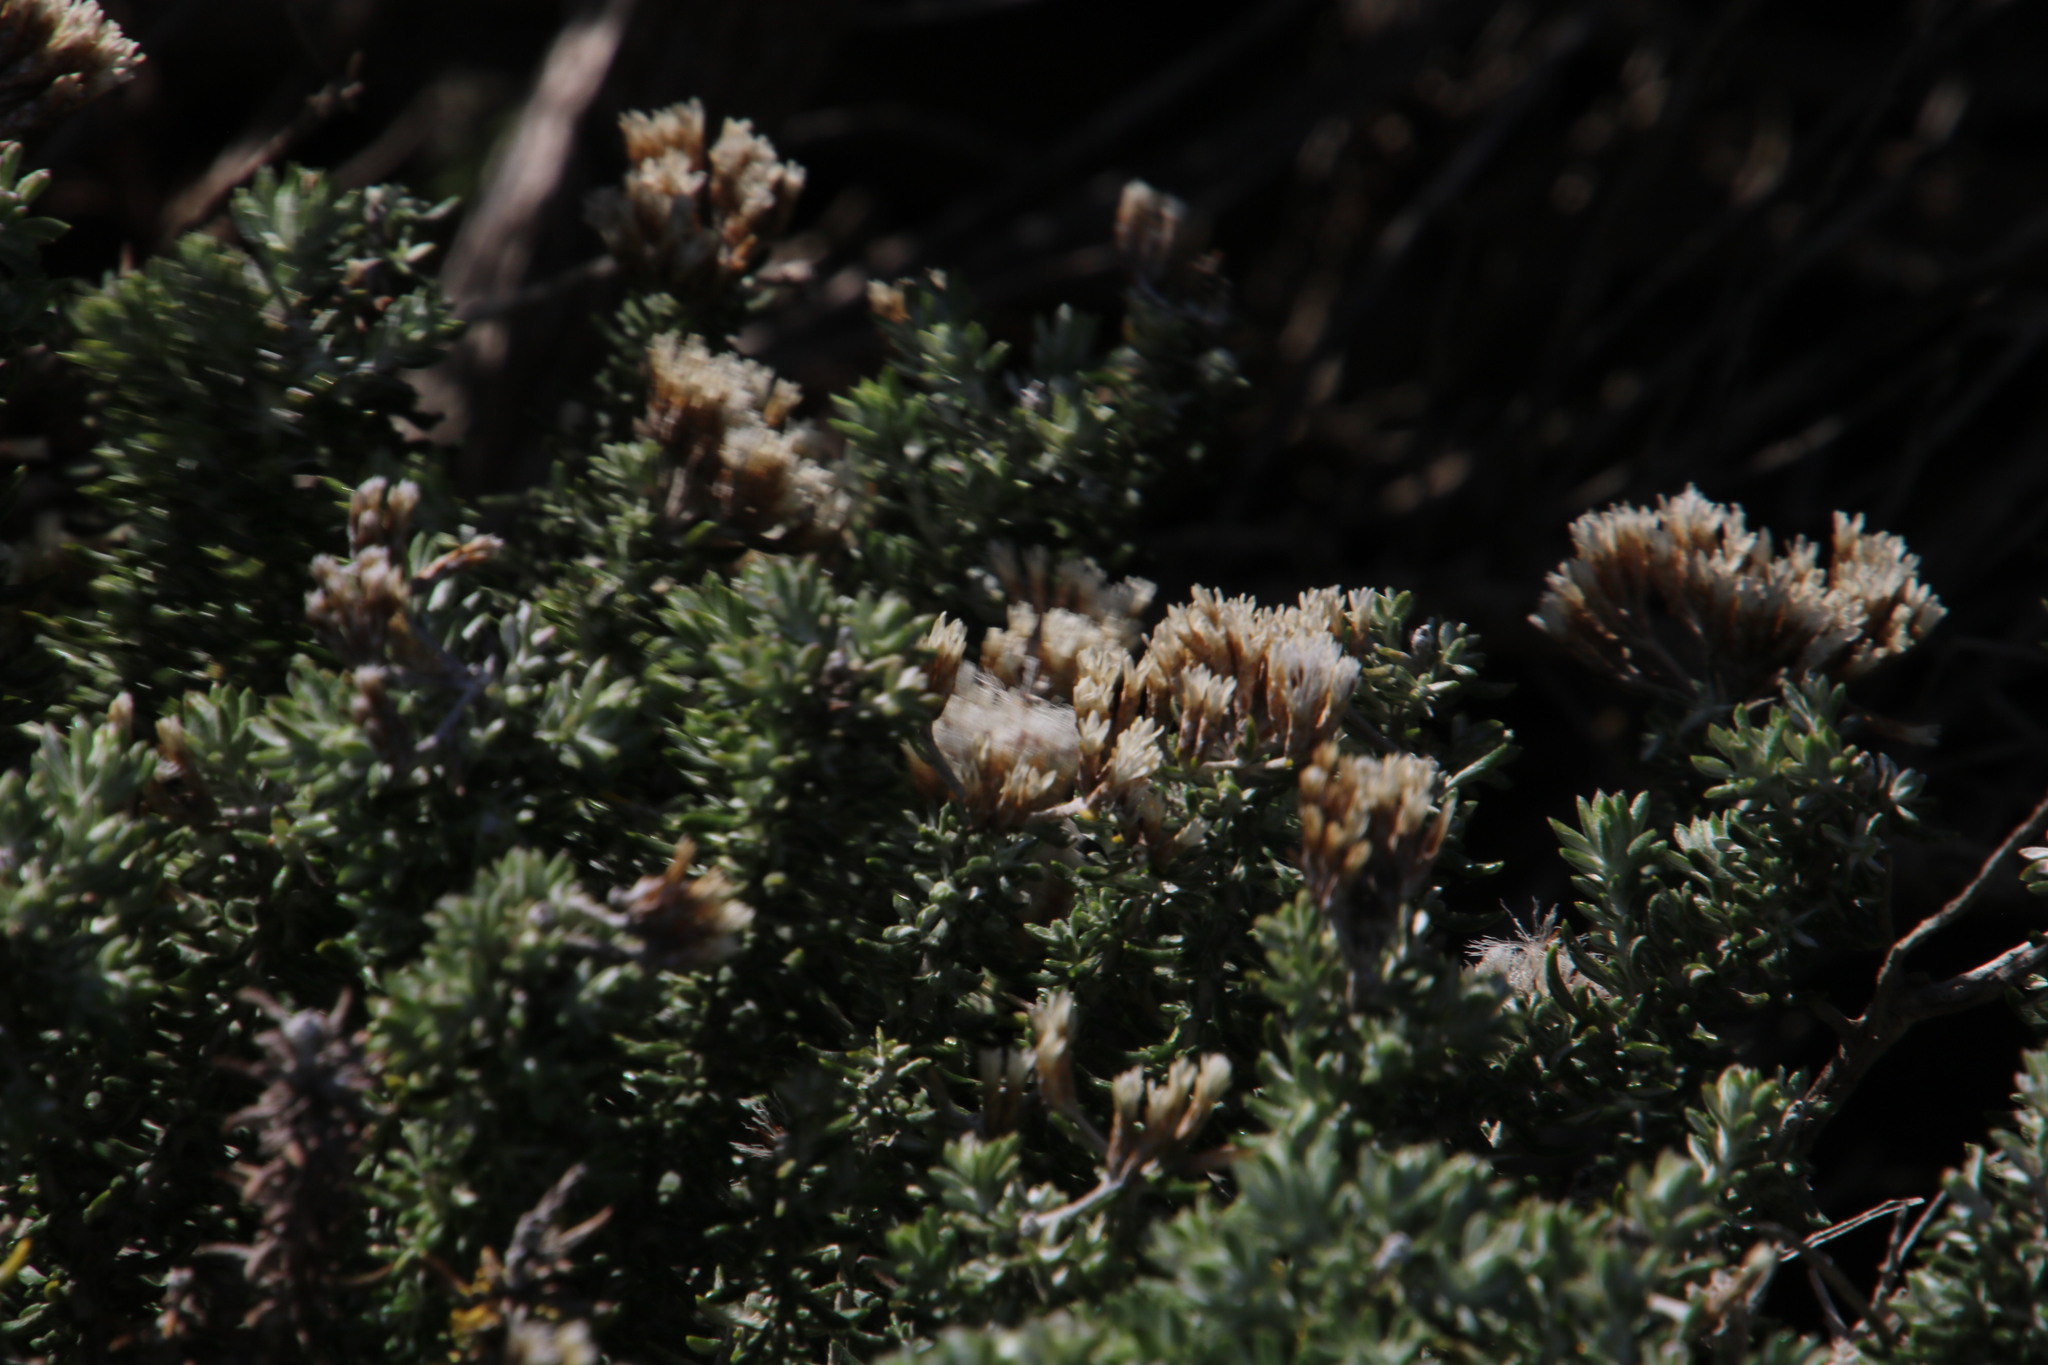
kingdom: Plantae
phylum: Tracheophyta
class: Magnoliopsida
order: Asterales
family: Asteraceae
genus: Metalasia
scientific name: Metalasia muricata
